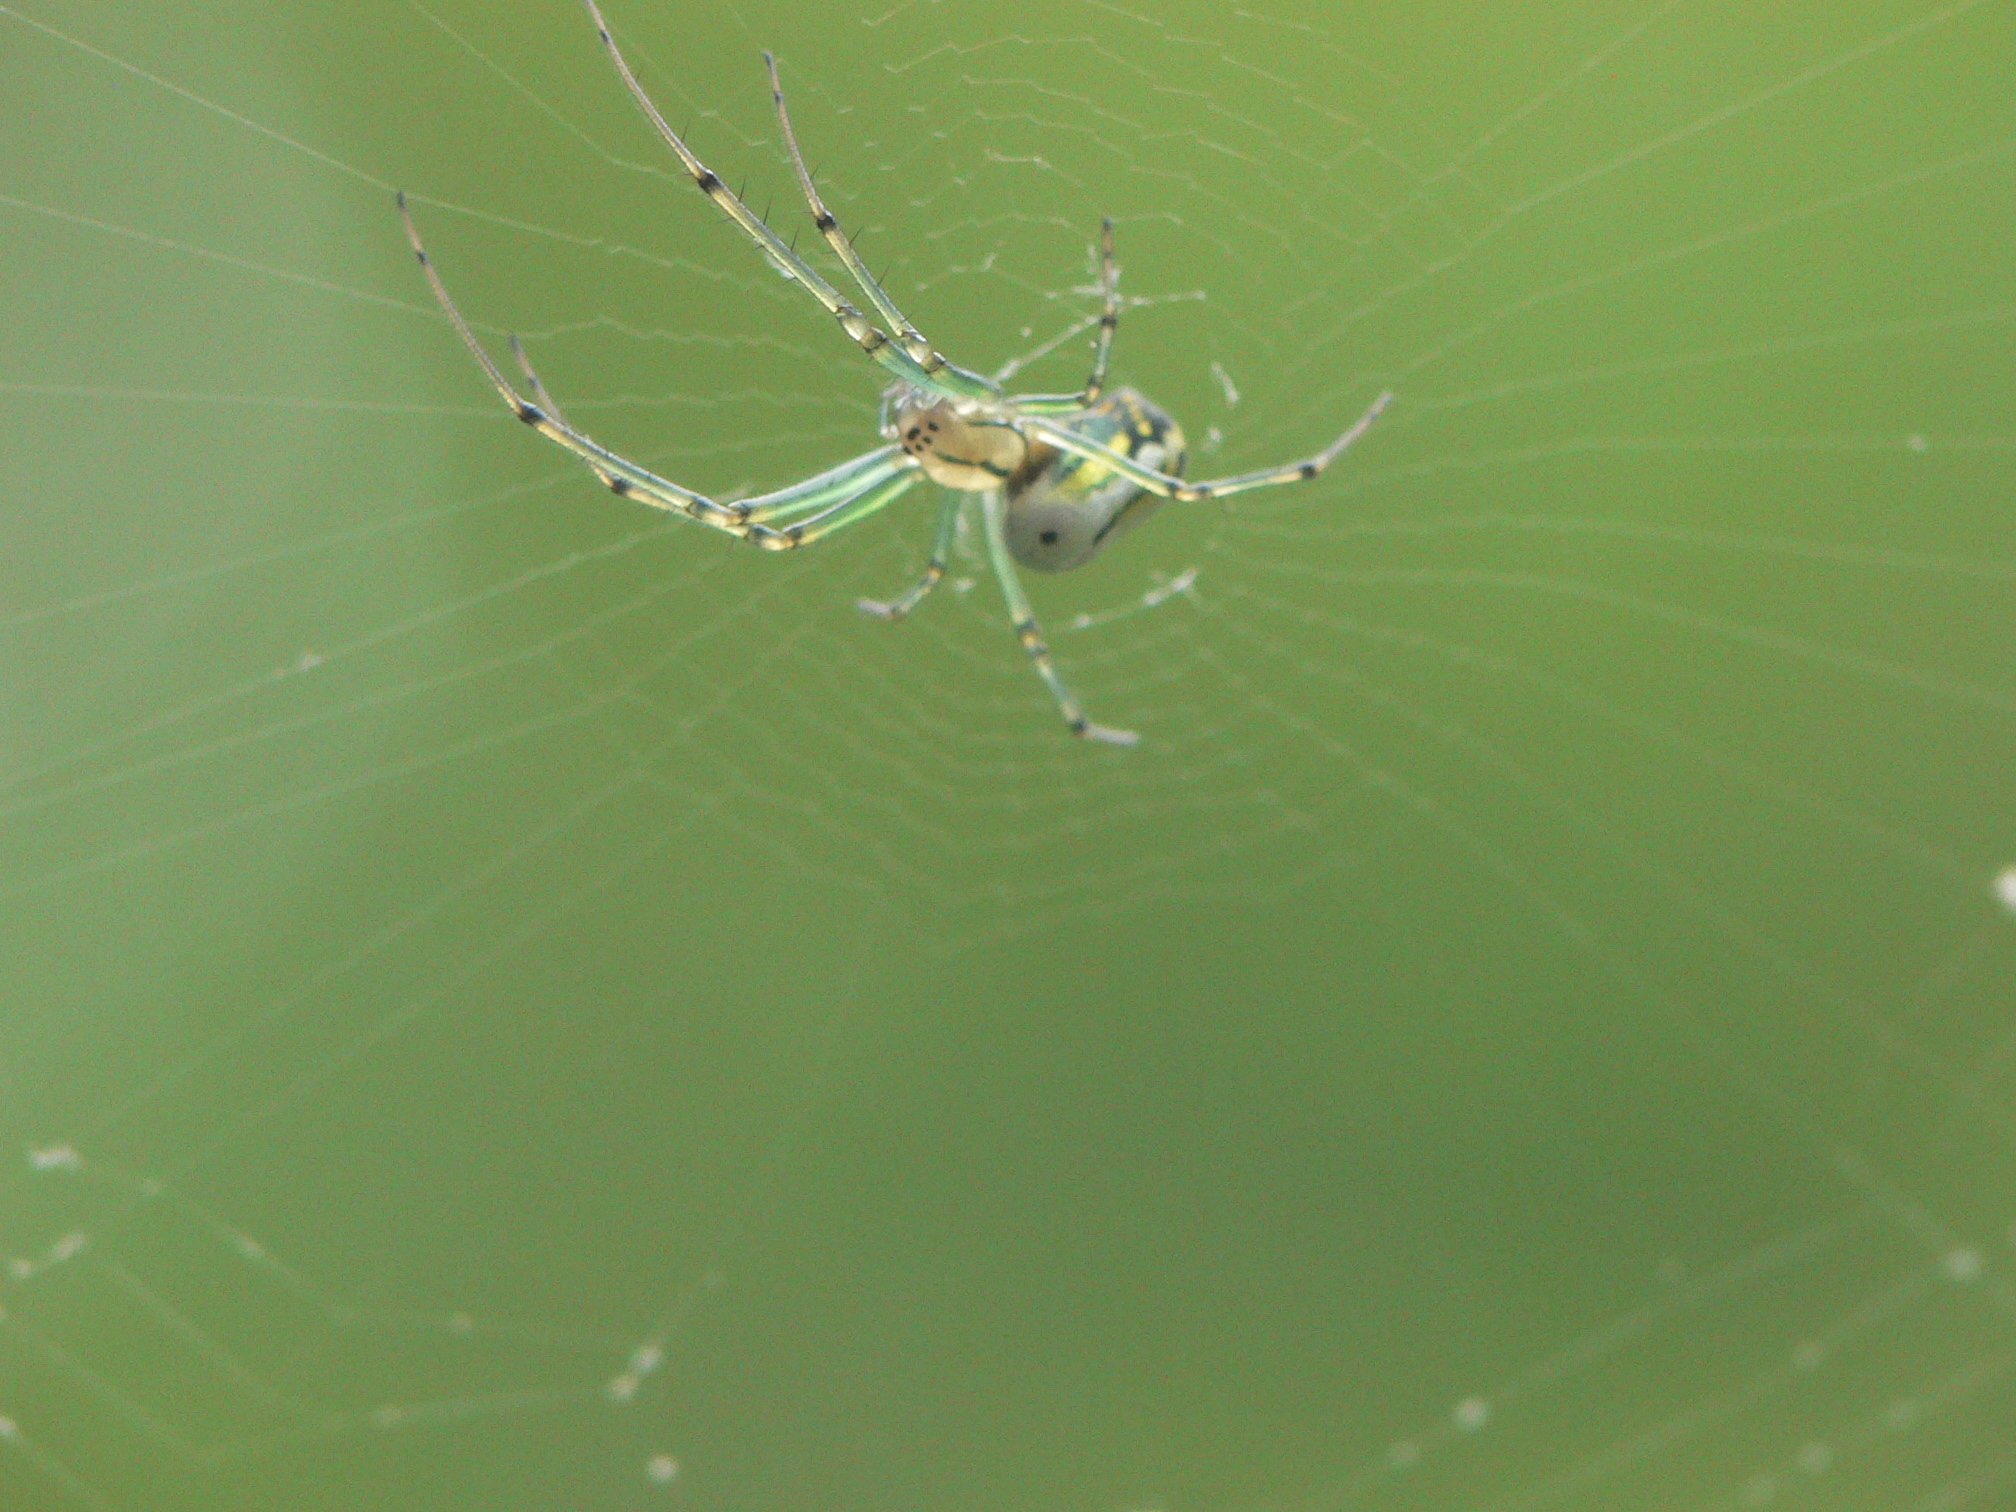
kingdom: Animalia
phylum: Arthropoda
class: Arachnida
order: Araneae
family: Tetragnathidae
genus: Leucauge
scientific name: Leucauge venusta
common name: Longjawed orb weavers
